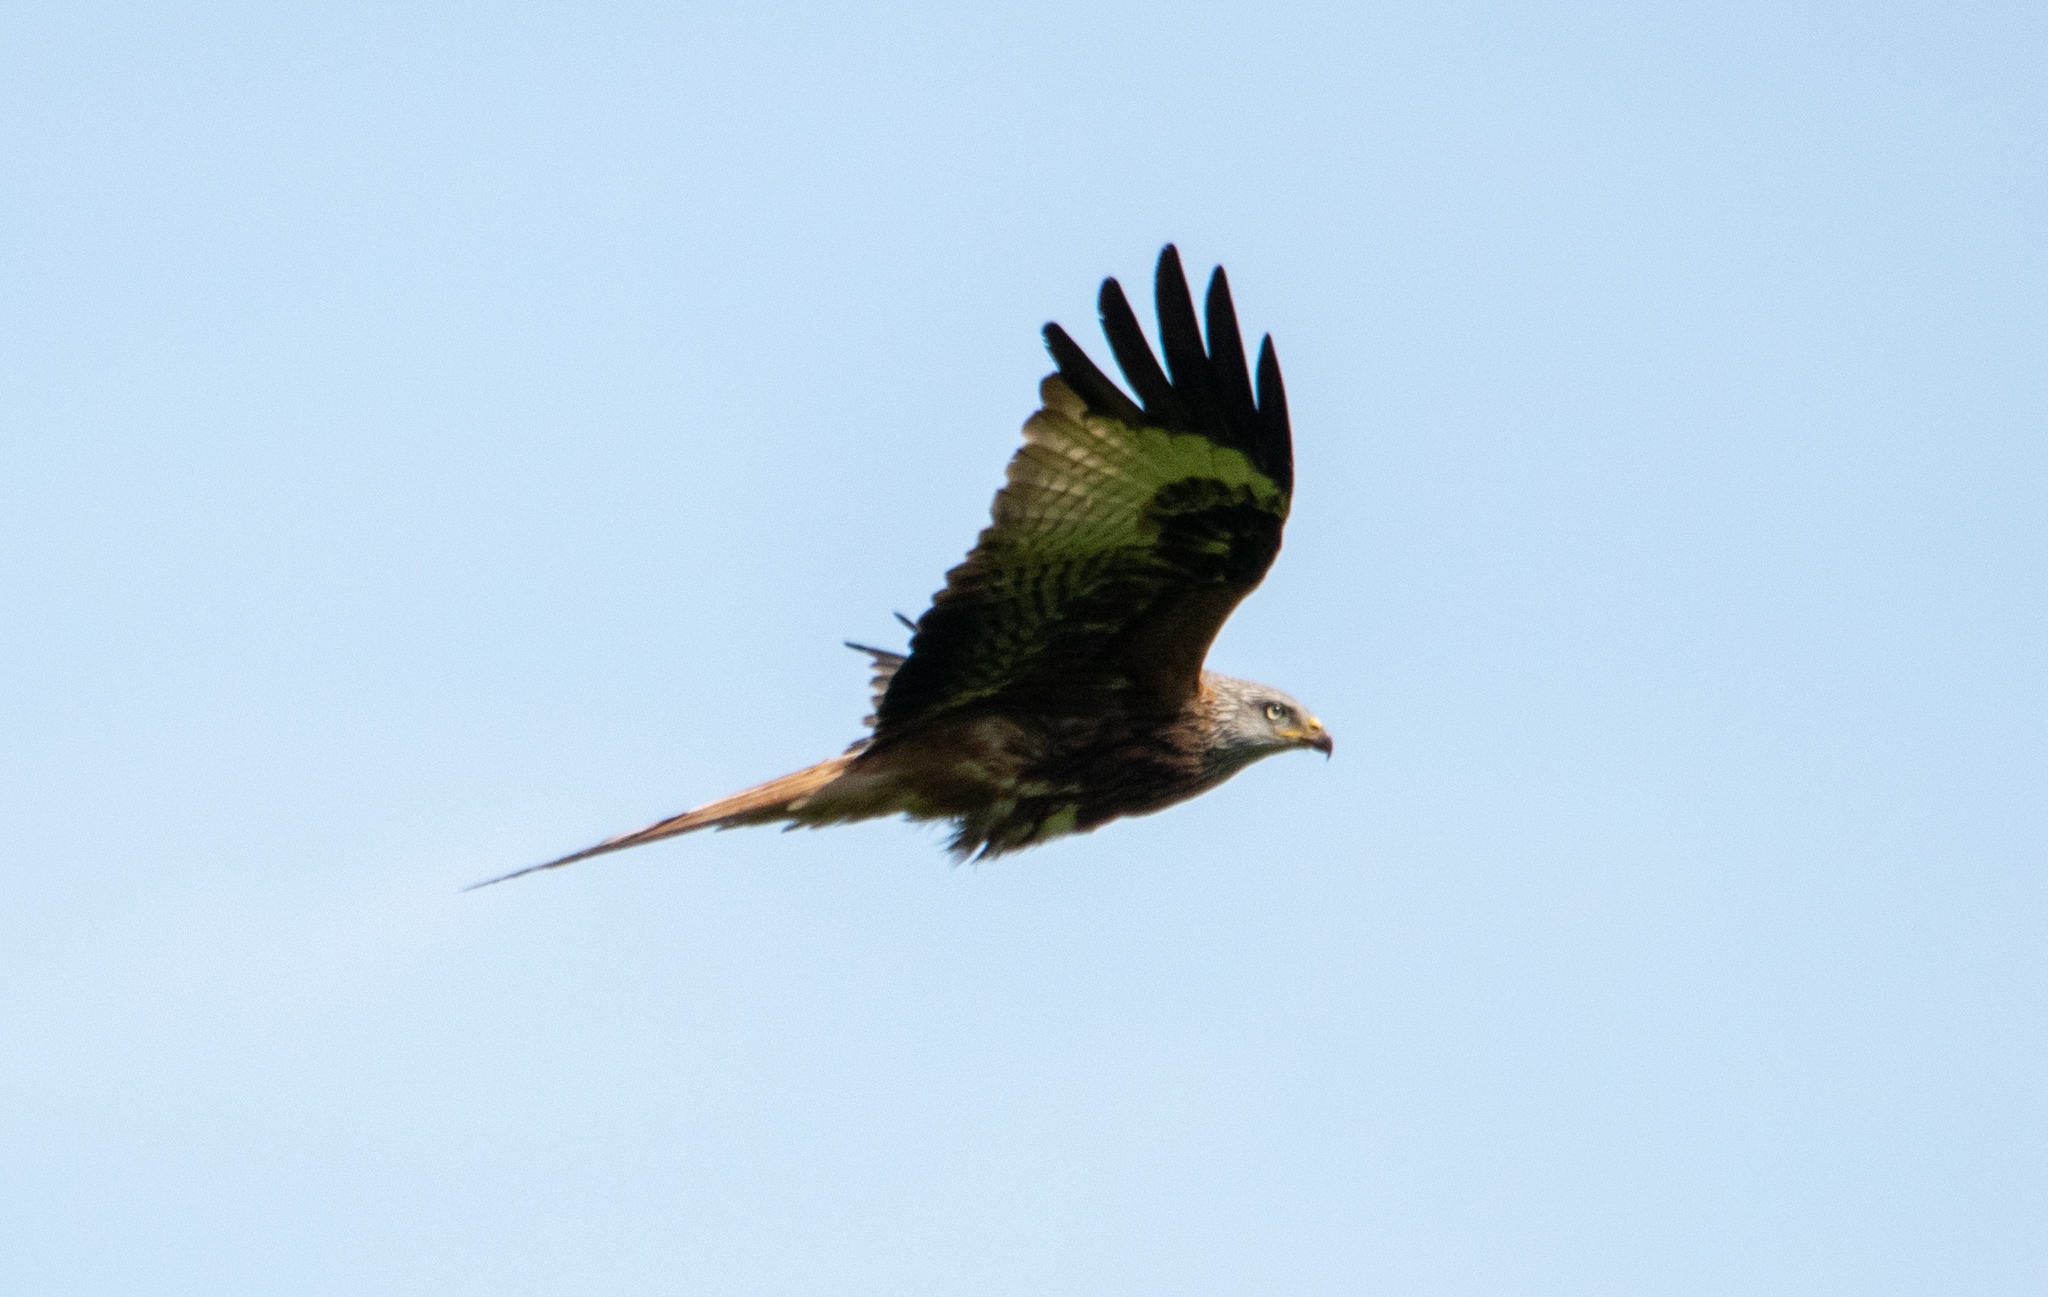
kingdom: Animalia
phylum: Chordata
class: Aves
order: Accipitriformes
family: Accipitridae
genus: Milvus
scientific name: Milvus milvus
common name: Red kite
